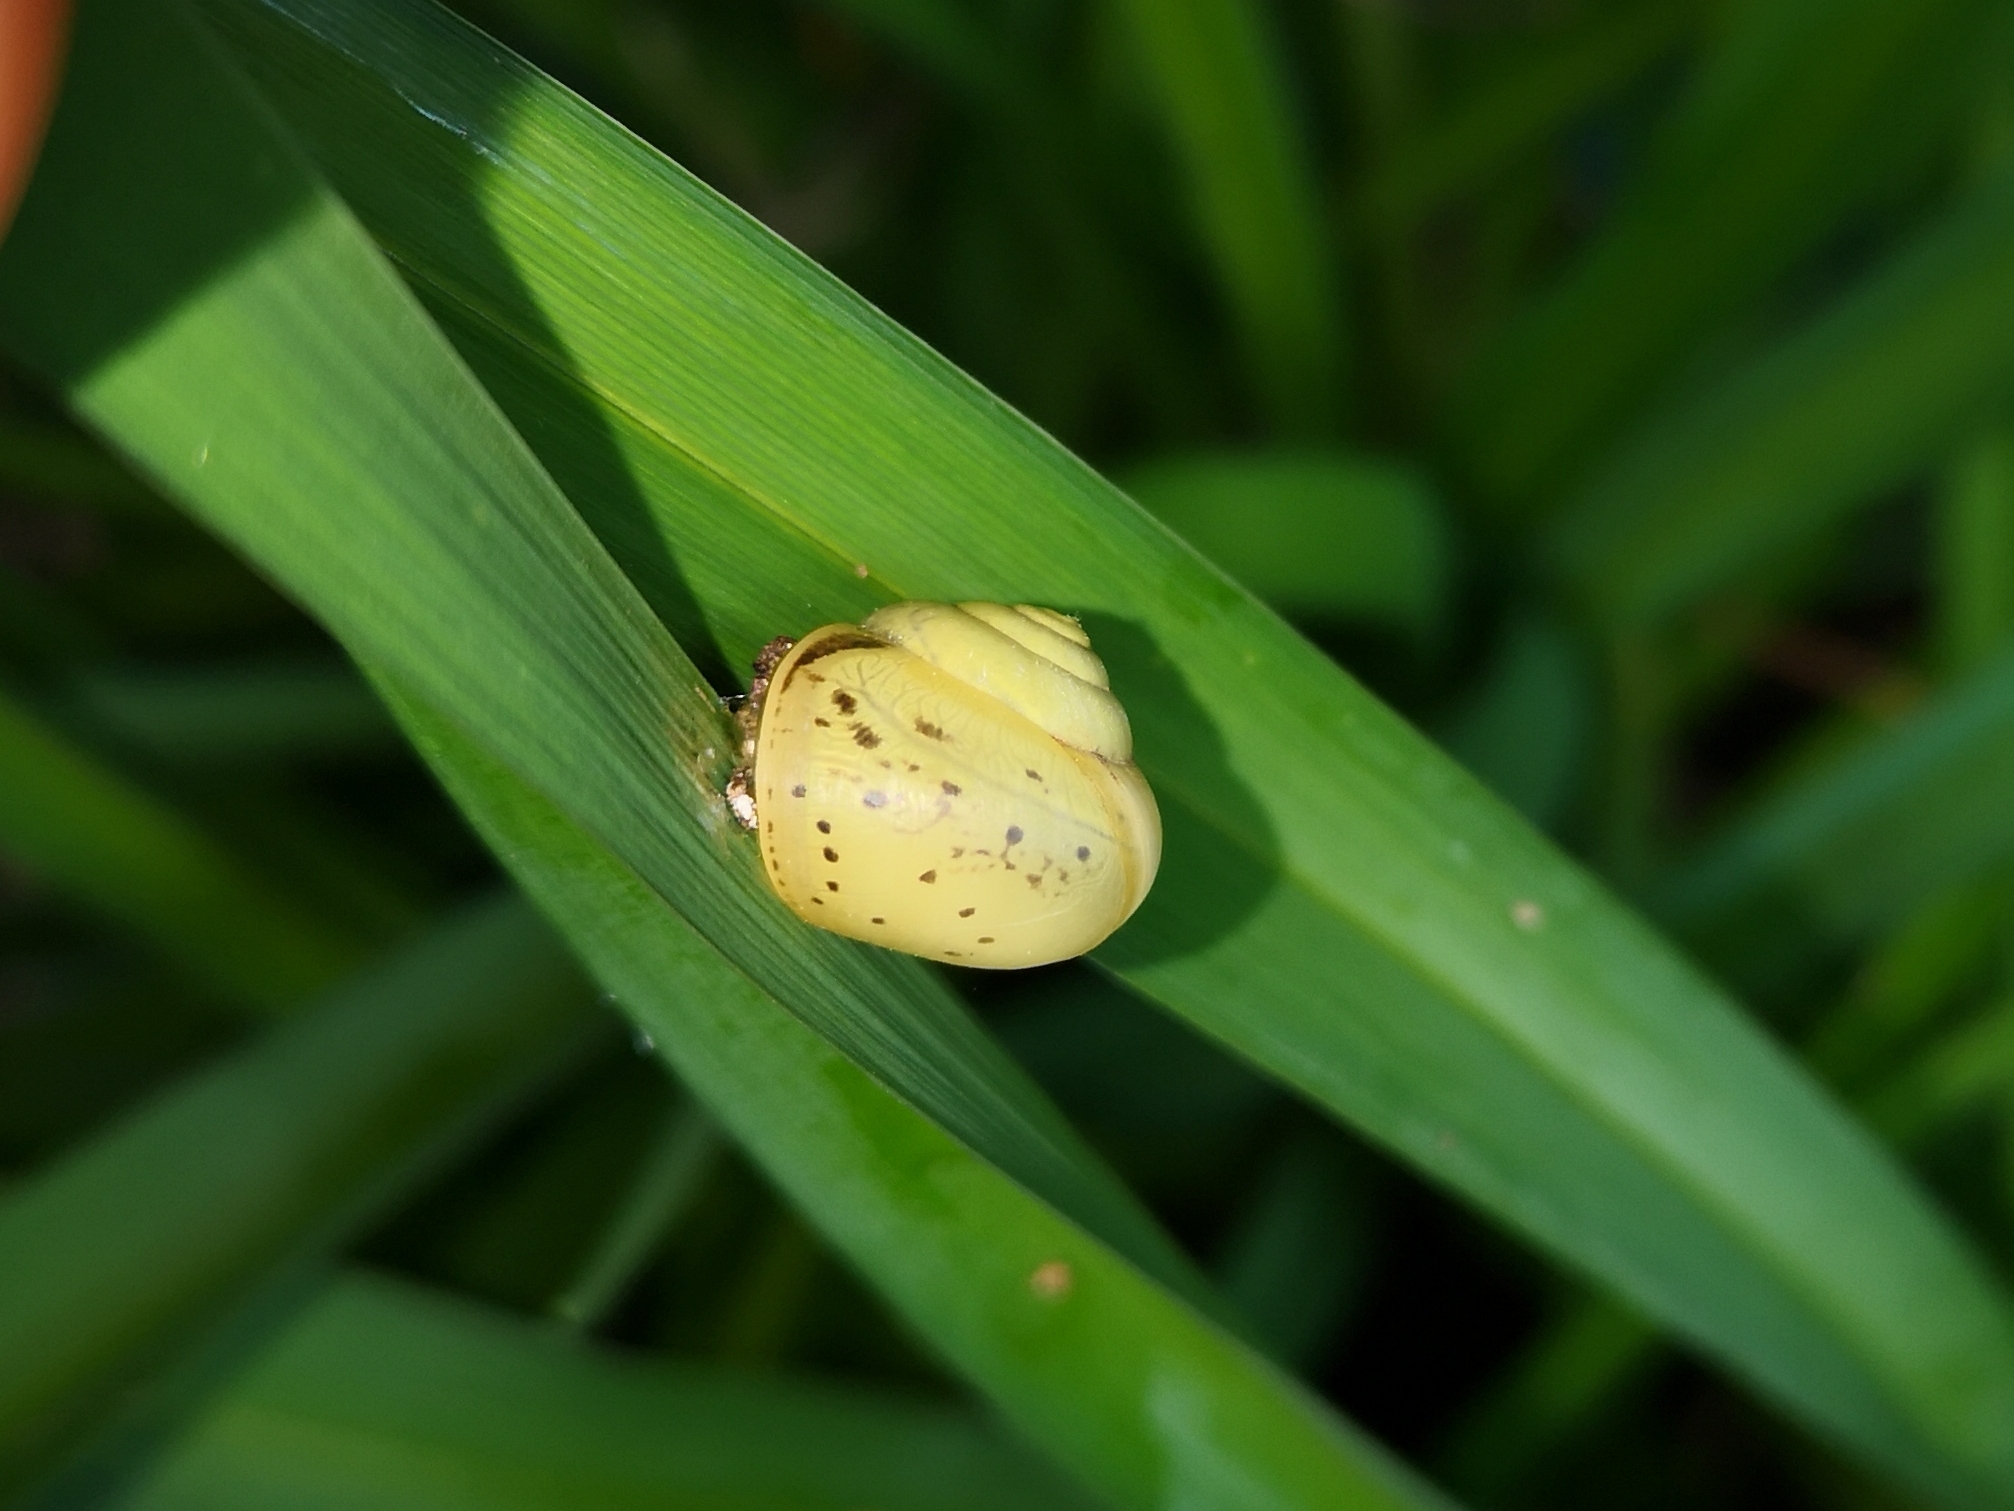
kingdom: Animalia
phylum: Mollusca
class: Gastropoda
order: Stylommatophora
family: Camaenidae
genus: Fruticicola
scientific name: Fruticicola fruticum
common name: Bush snail
